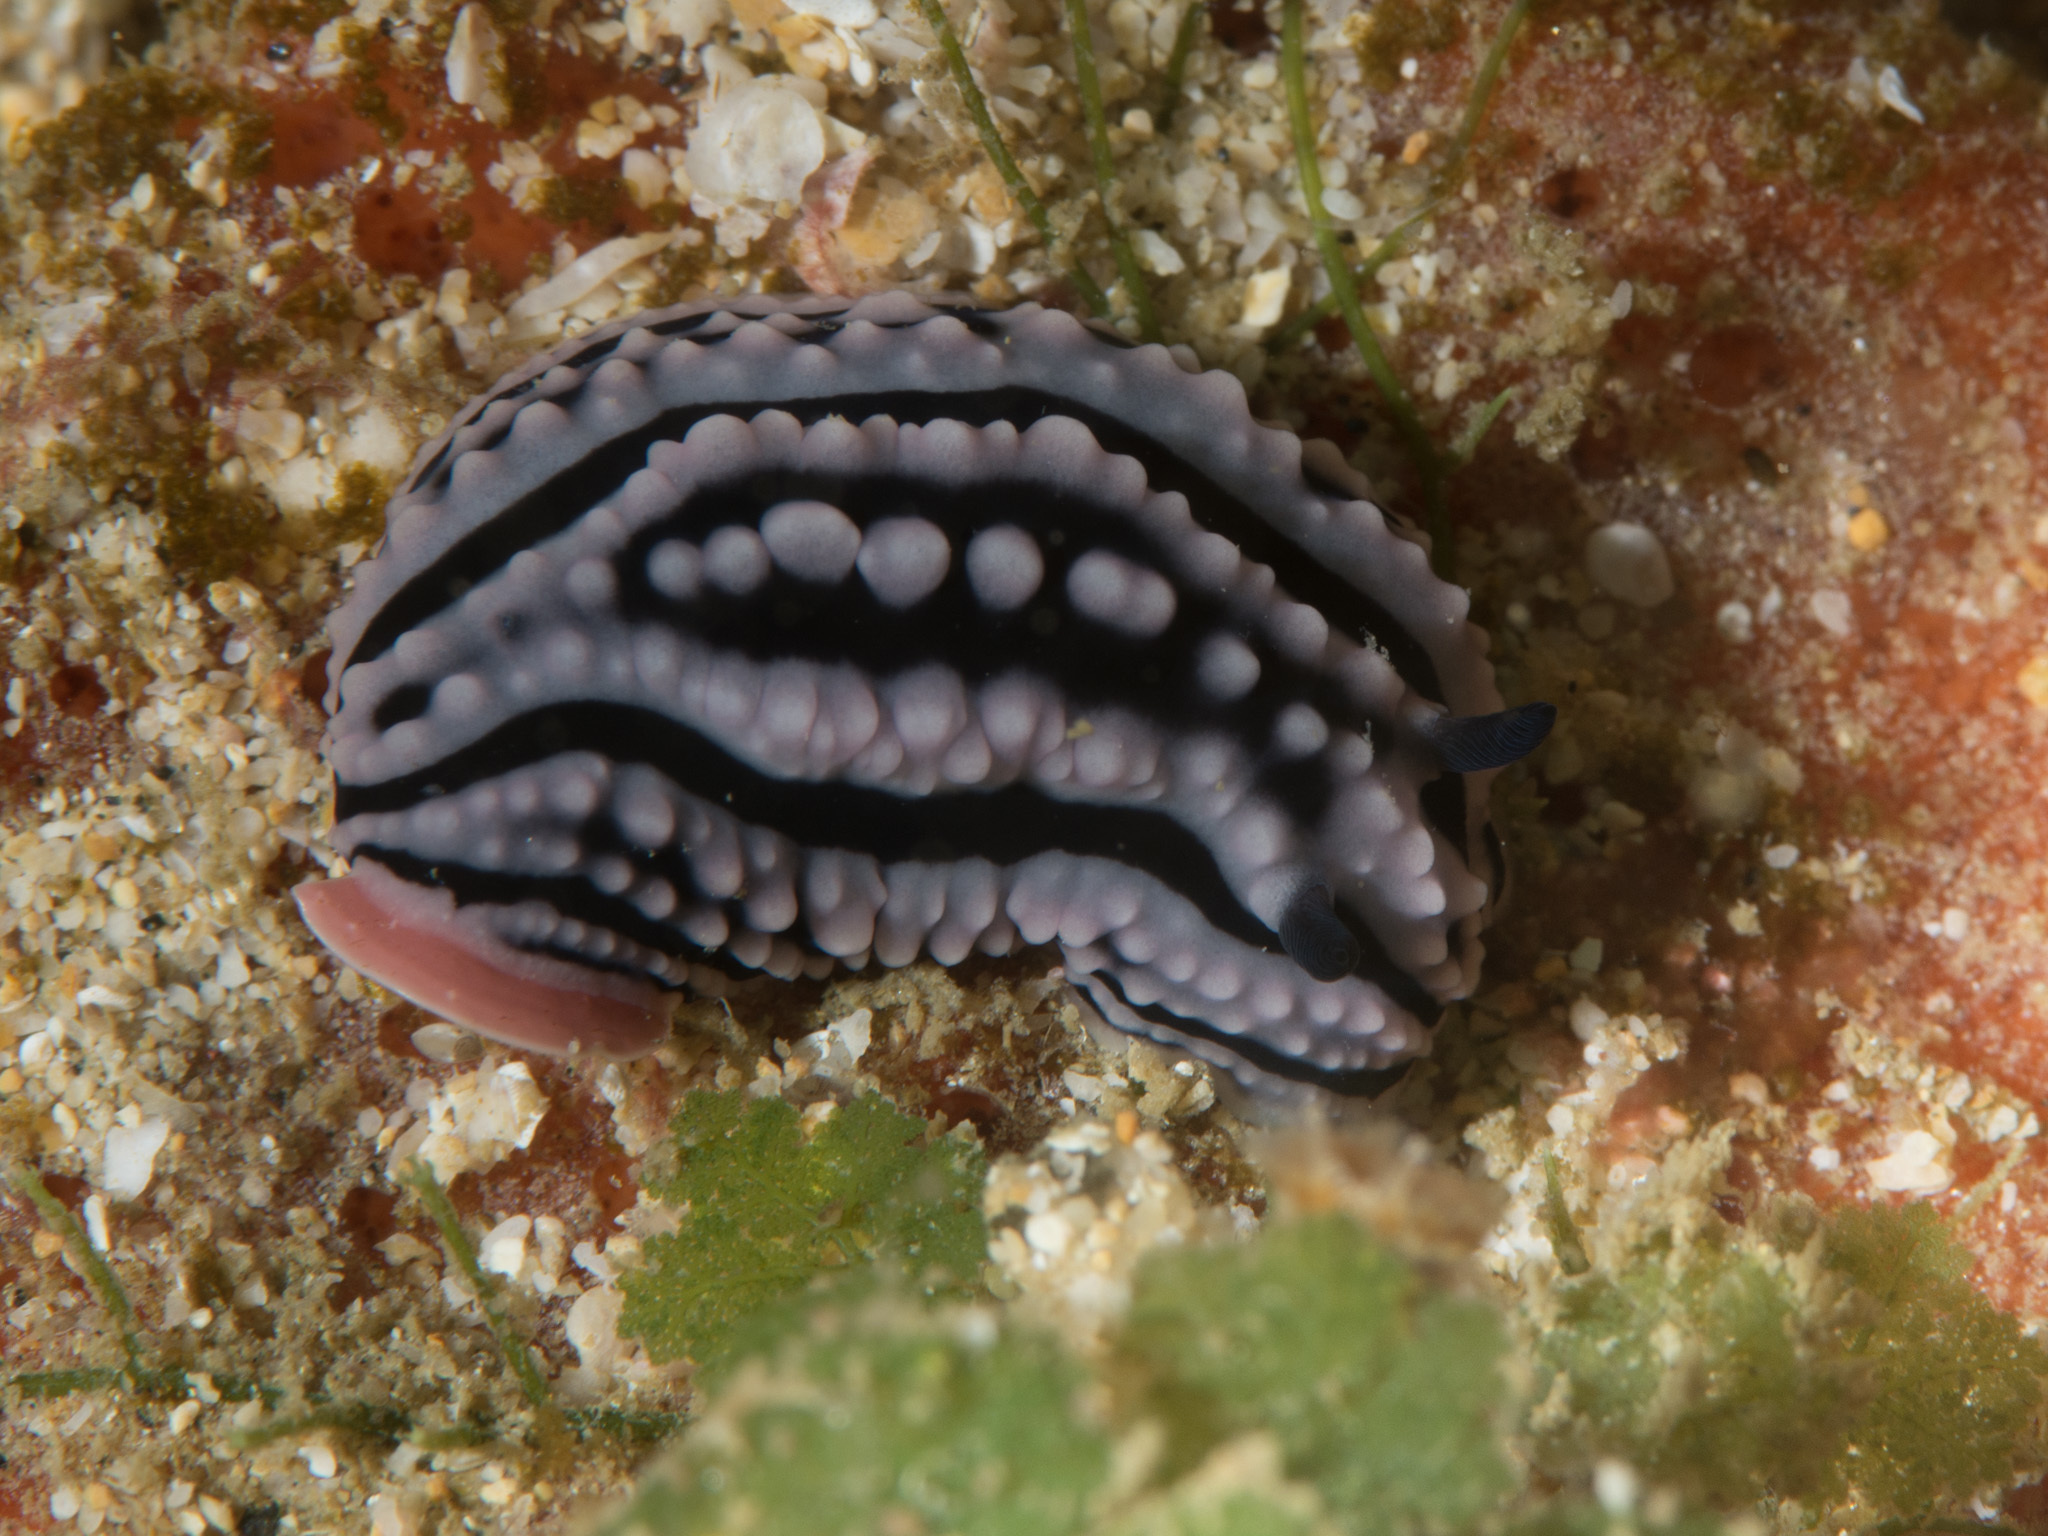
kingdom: Animalia
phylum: Mollusca
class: Gastropoda
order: Nudibranchia
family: Phyllidiidae
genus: Phyllidiella
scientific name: Phyllidiella zeylanica
